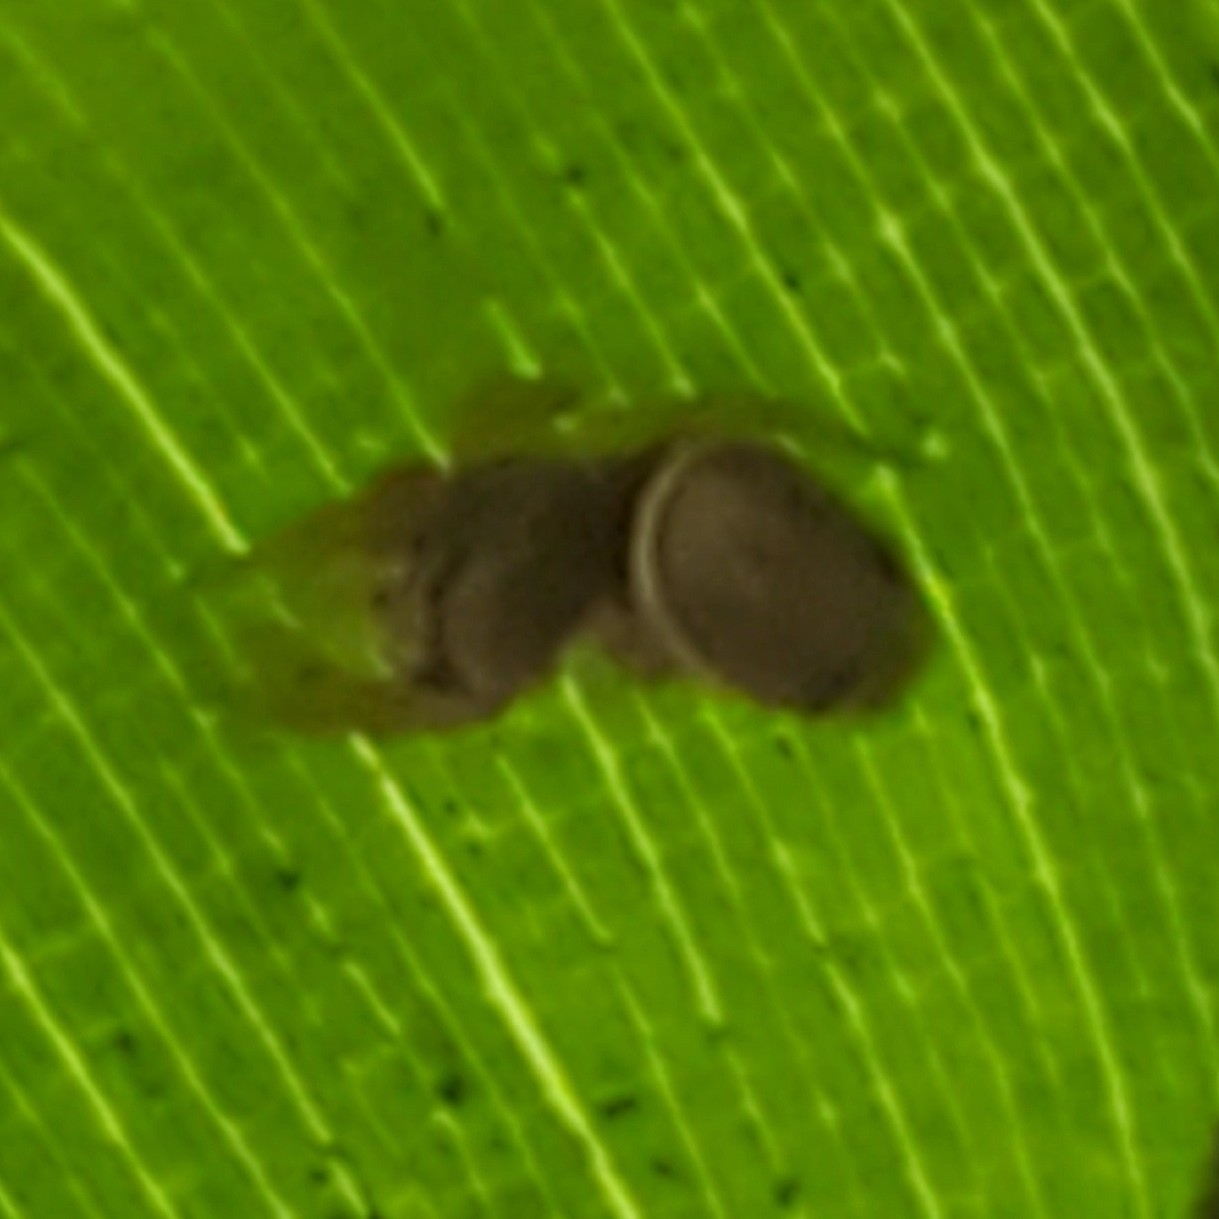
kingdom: Animalia
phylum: Arthropoda
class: Arachnida
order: Araneae
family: Salticidae
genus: Sassacus
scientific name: Sassacus vitis
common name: Jumping spiders
